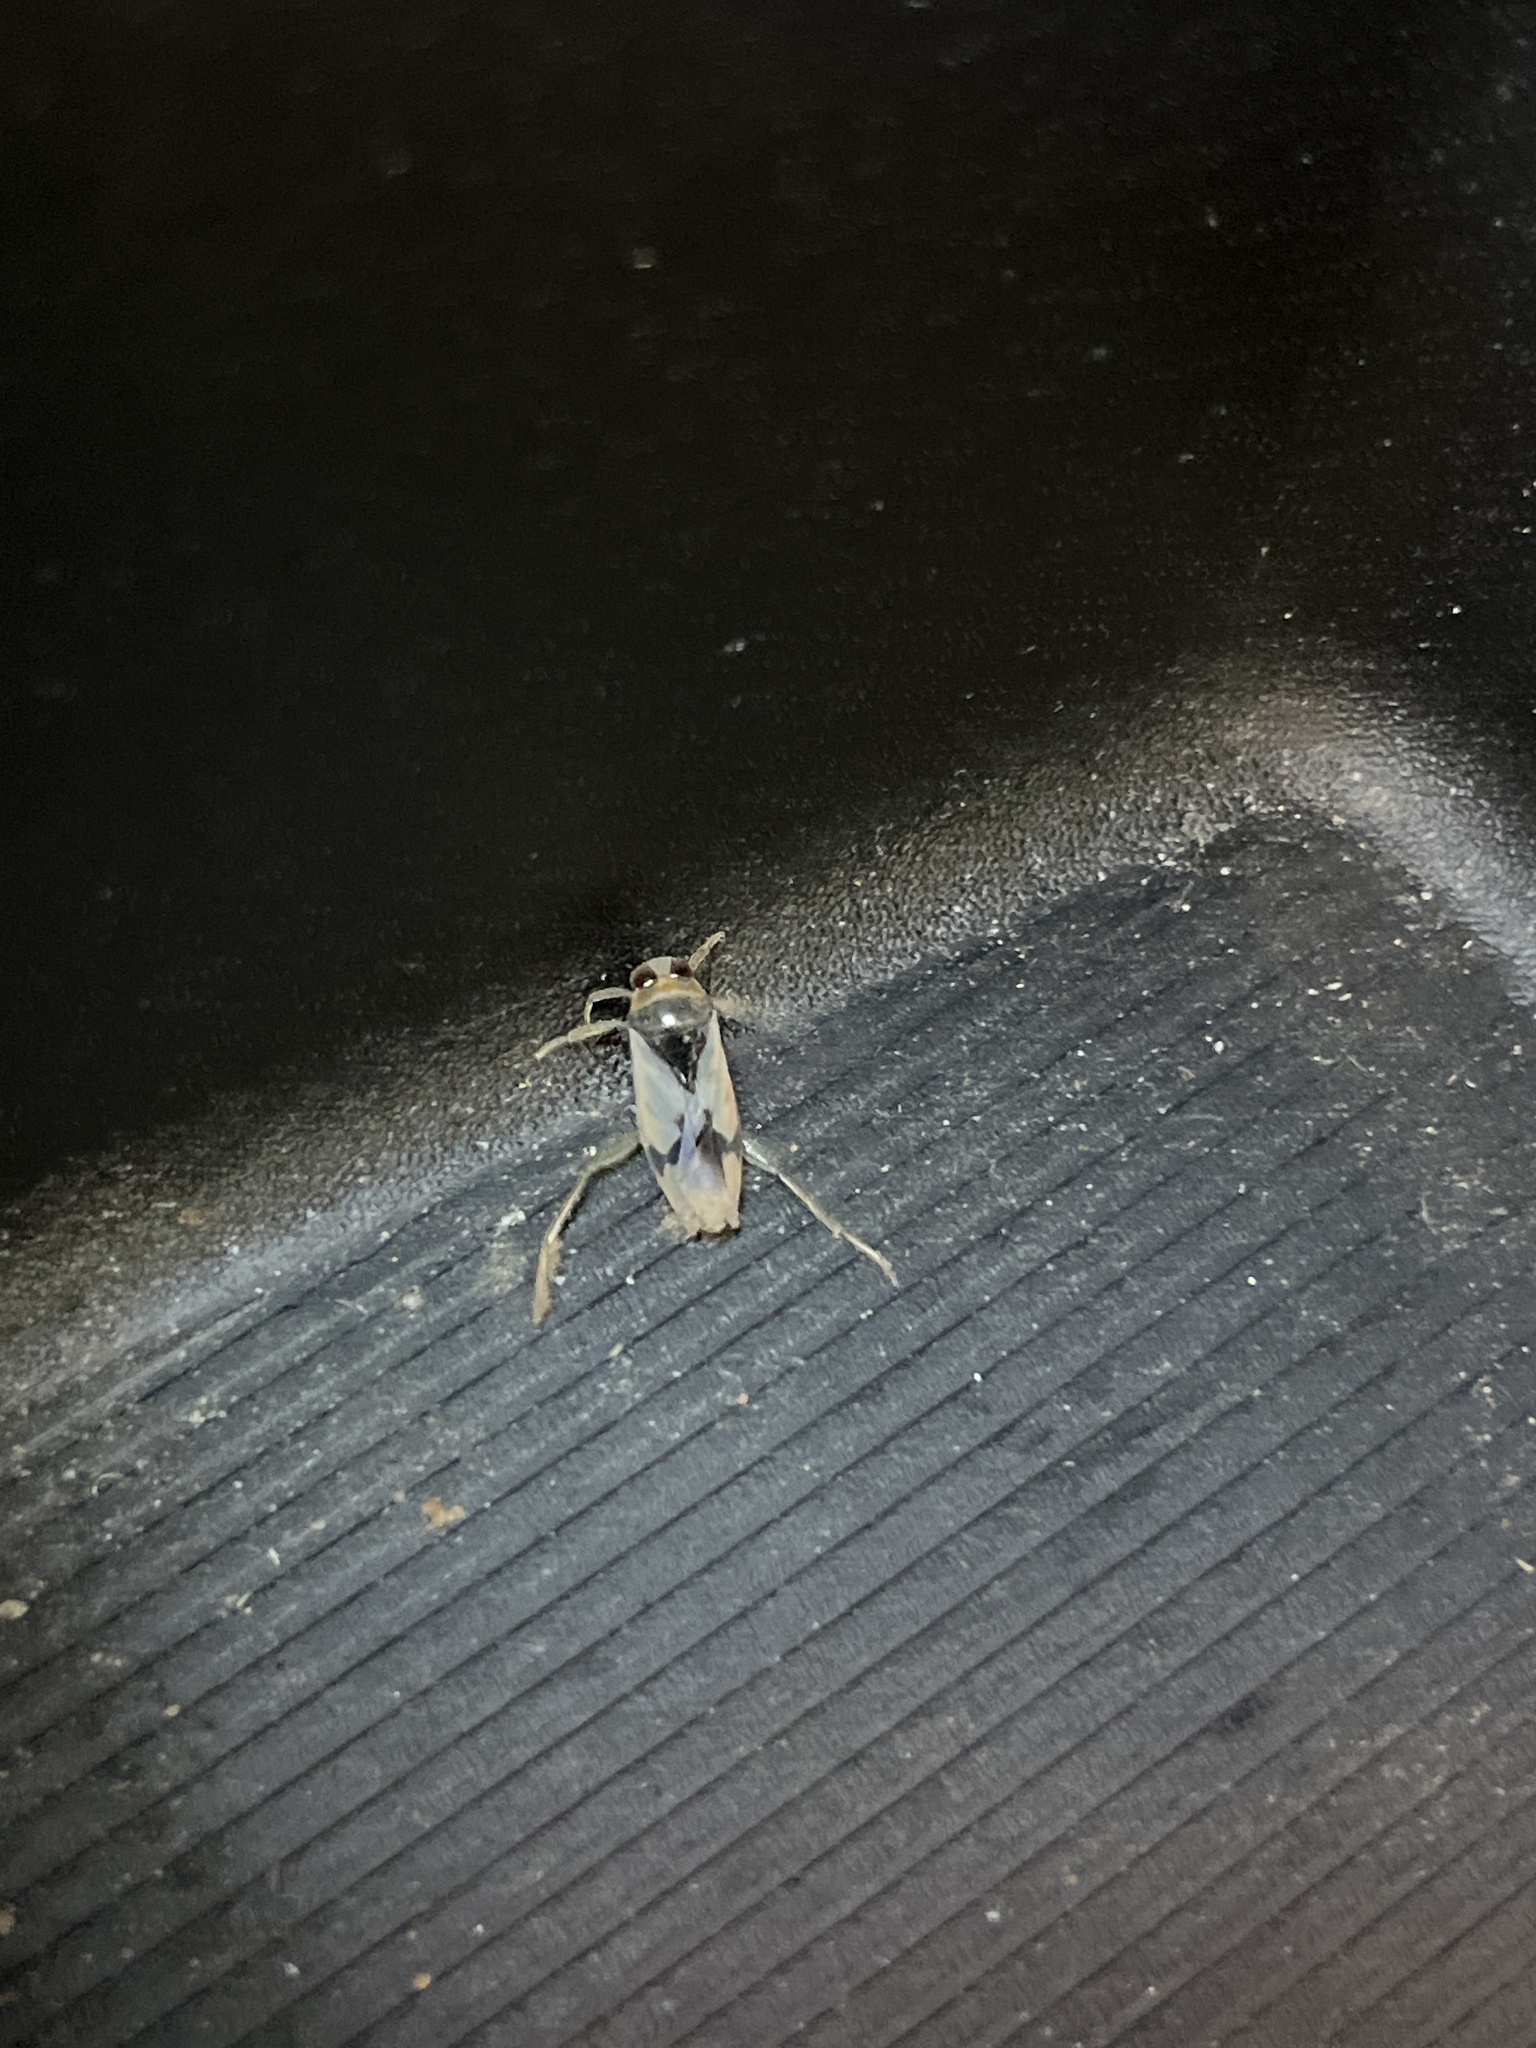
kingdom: Animalia
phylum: Arthropoda
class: Insecta
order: Hemiptera
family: Notonectidae
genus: Notonecta
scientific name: Notonecta undulata
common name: Grousewinged backswimmer
